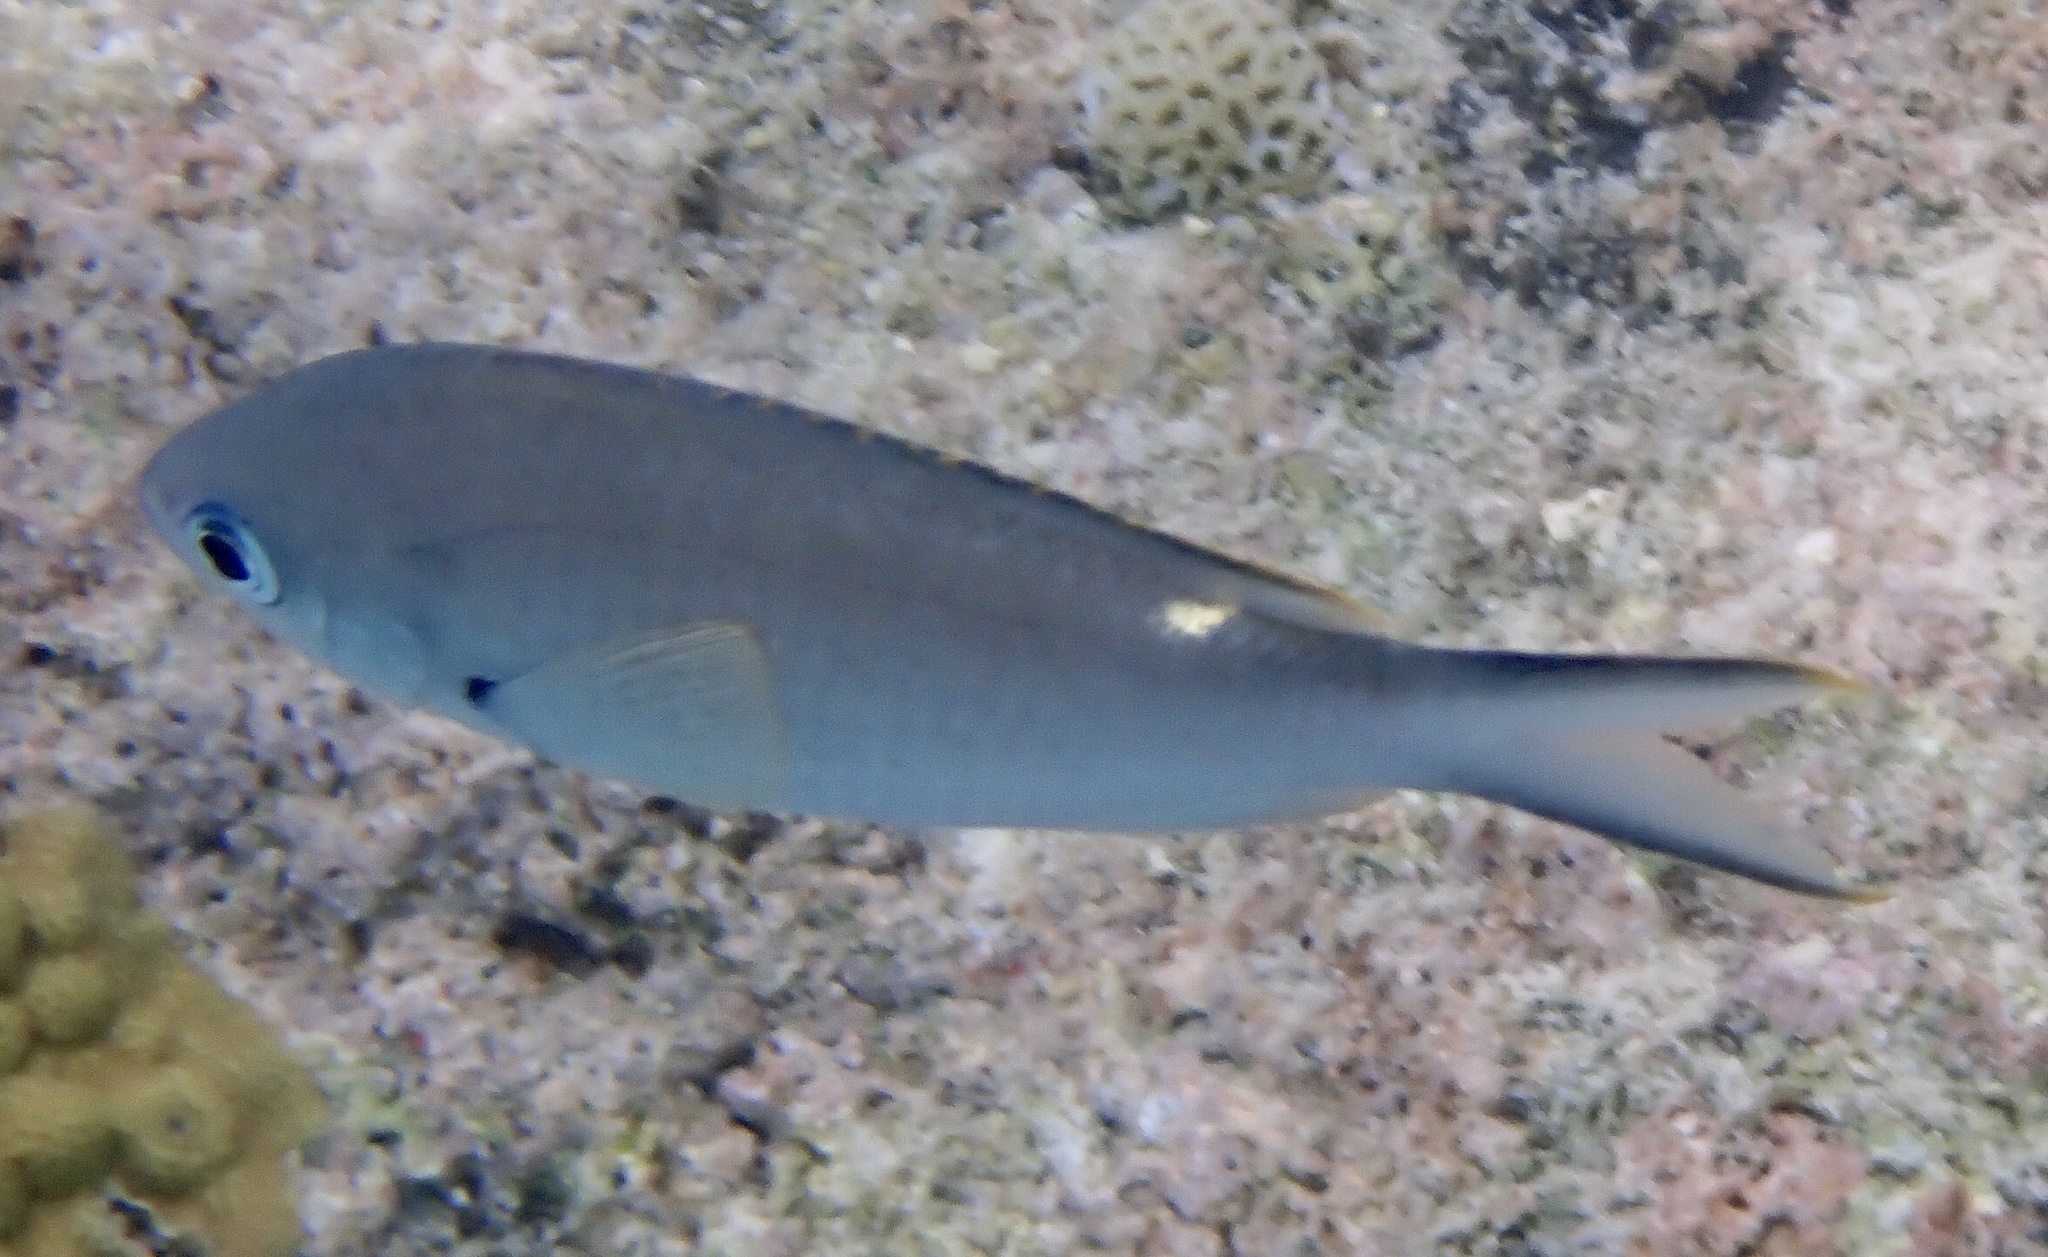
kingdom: Animalia
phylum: Chordata
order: Perciformes
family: Pomacentridae
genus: Chromis
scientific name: Chromis multilineata
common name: Brown chromis
